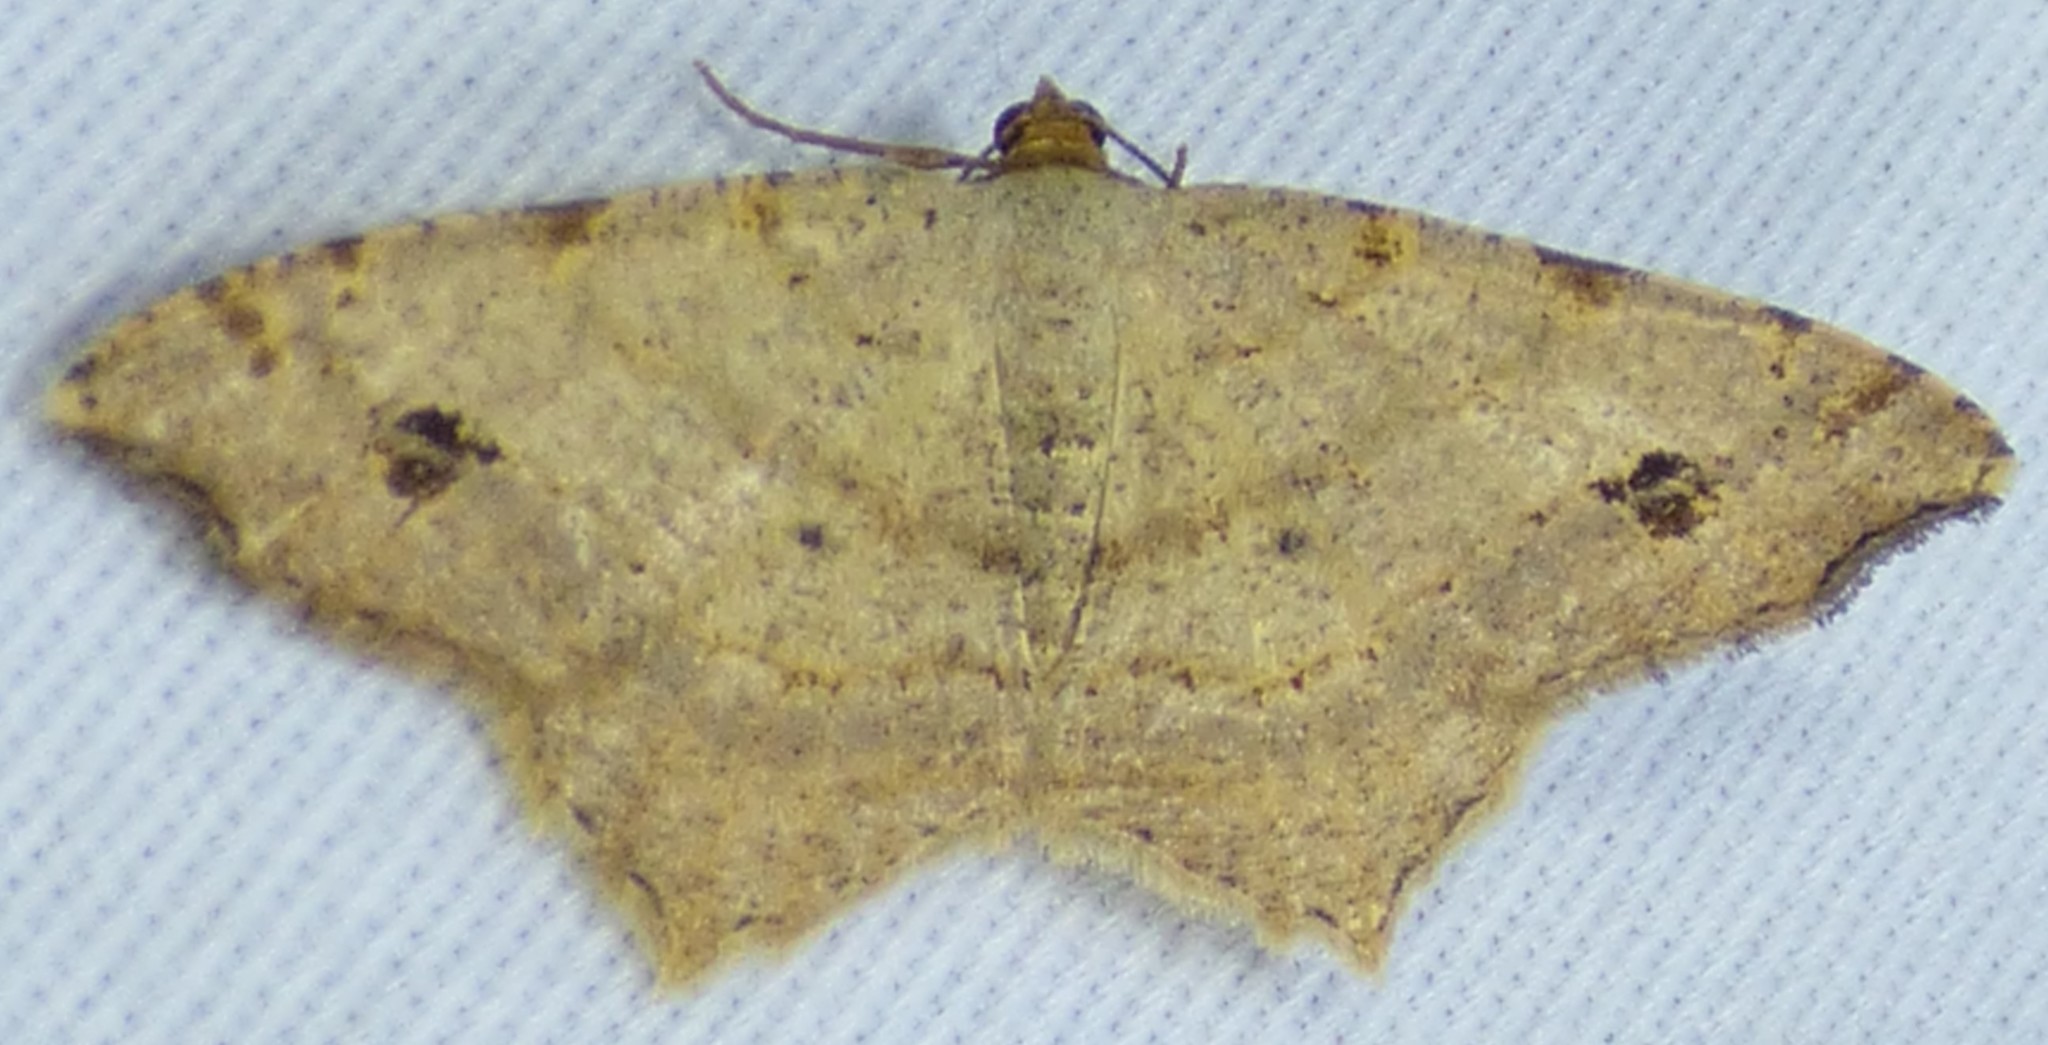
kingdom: Animalia
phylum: Arthropoda
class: Insecta
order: Lepidoptera
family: Geometridae
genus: Macaria
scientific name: Macaria aemulataria
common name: Common angle
